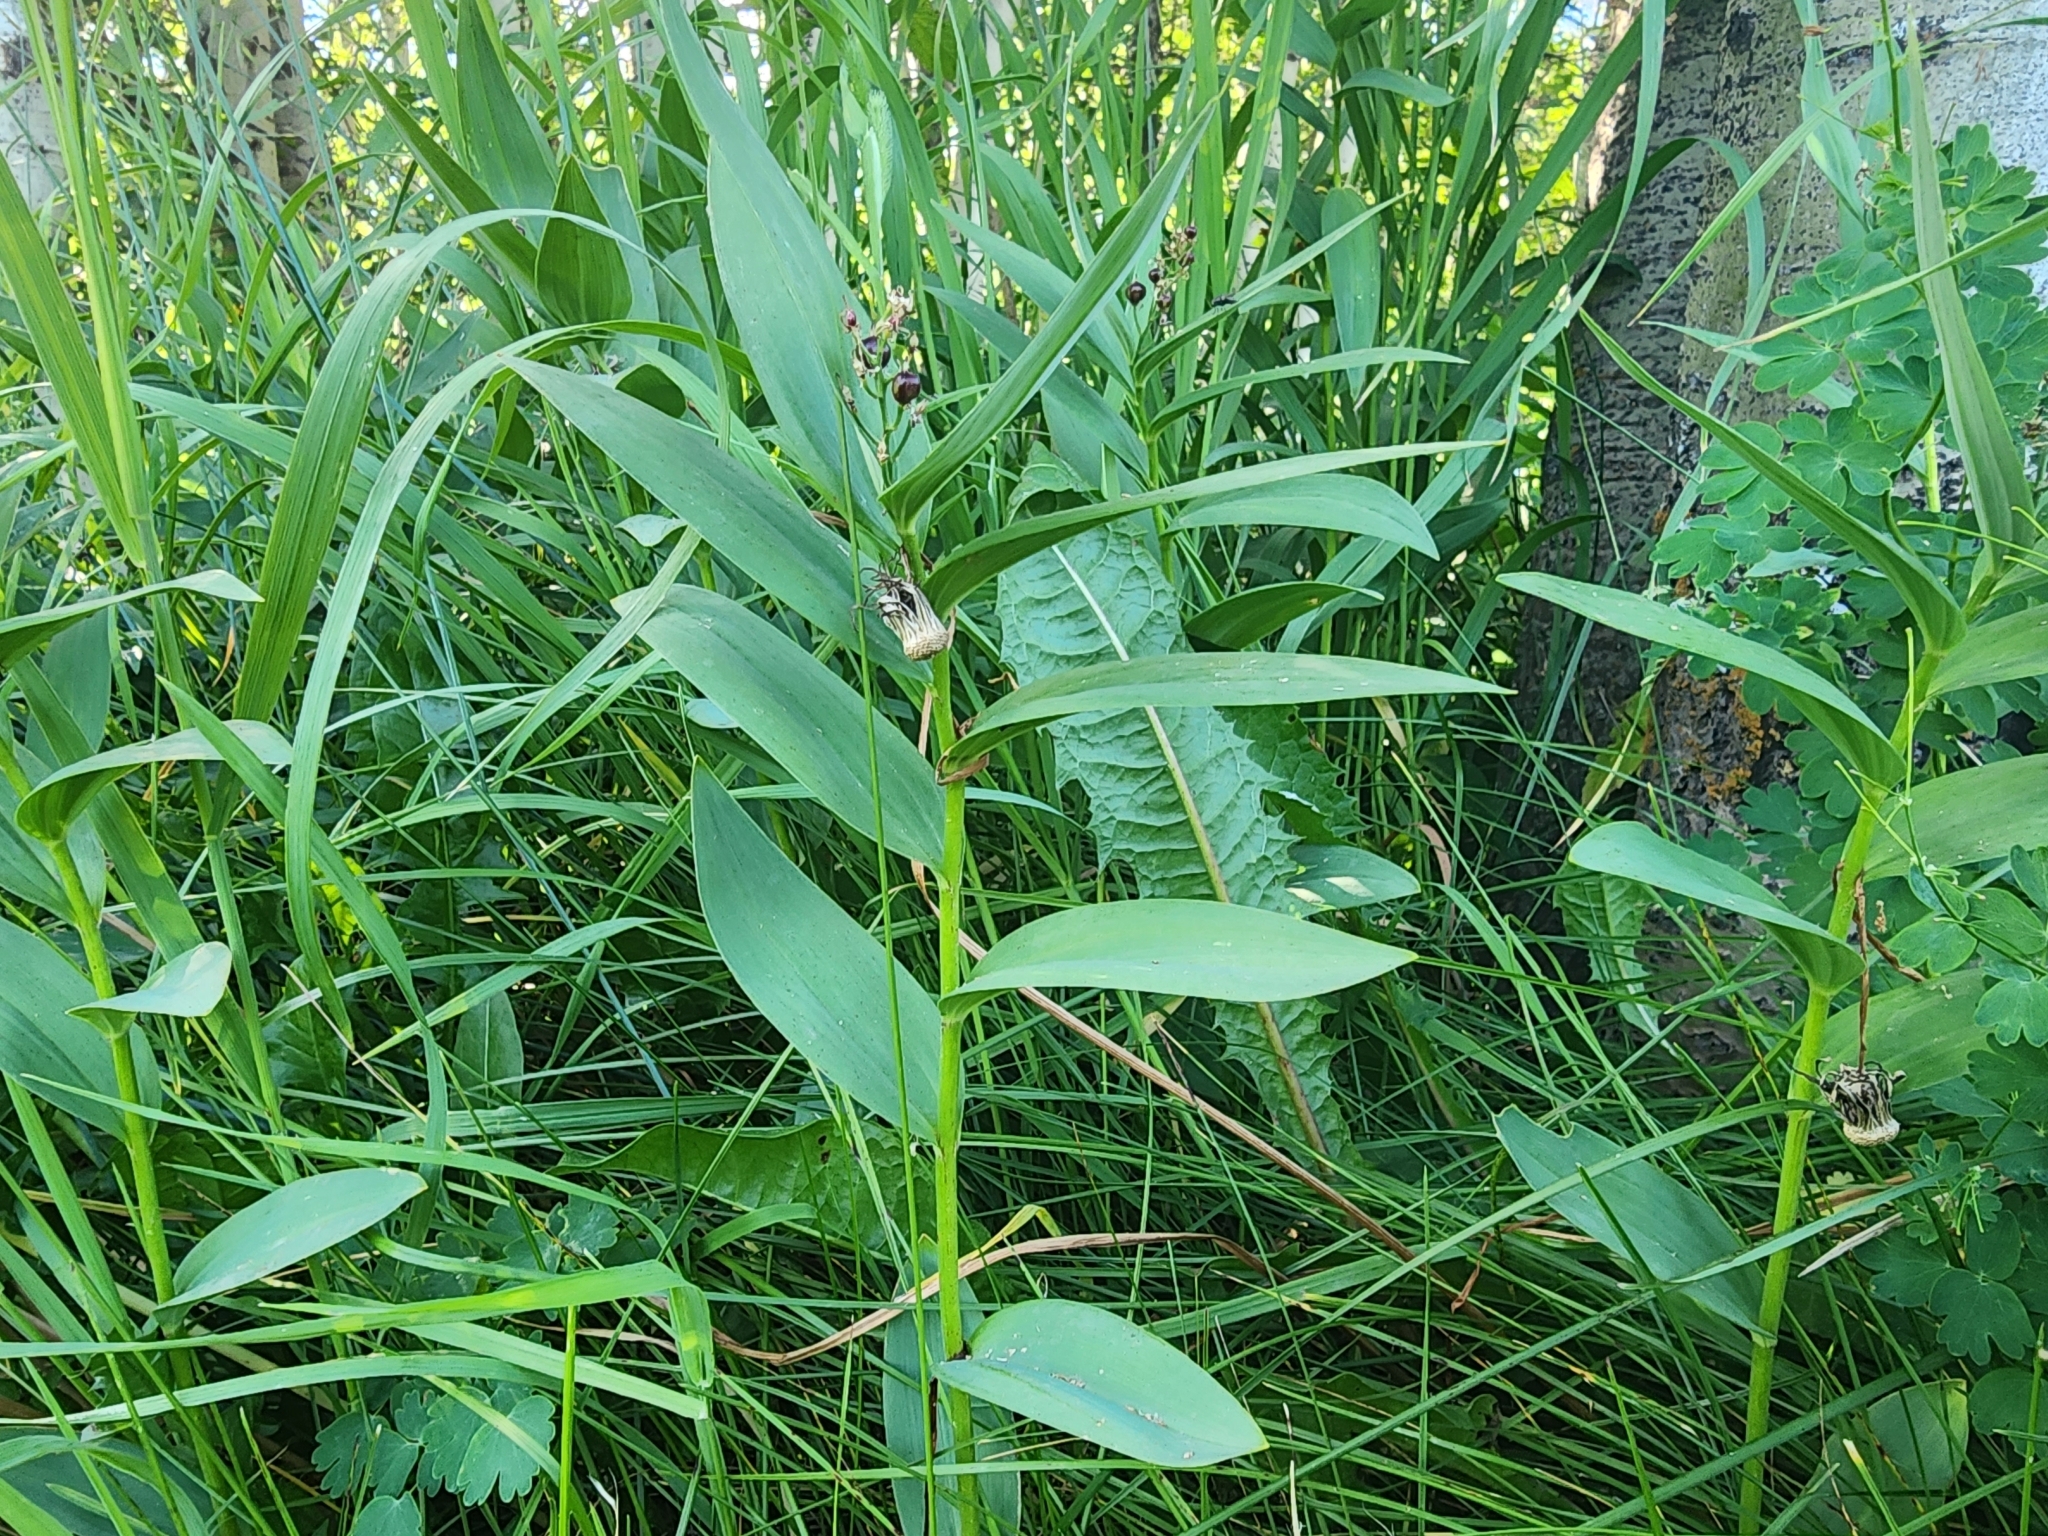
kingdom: Plantae
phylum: Tracheophyta
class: Liliopsida
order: Asparagales
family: Asparagaceae
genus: Maianthemum
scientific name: Maianthemum stellatum
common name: Little false solomon's seal
